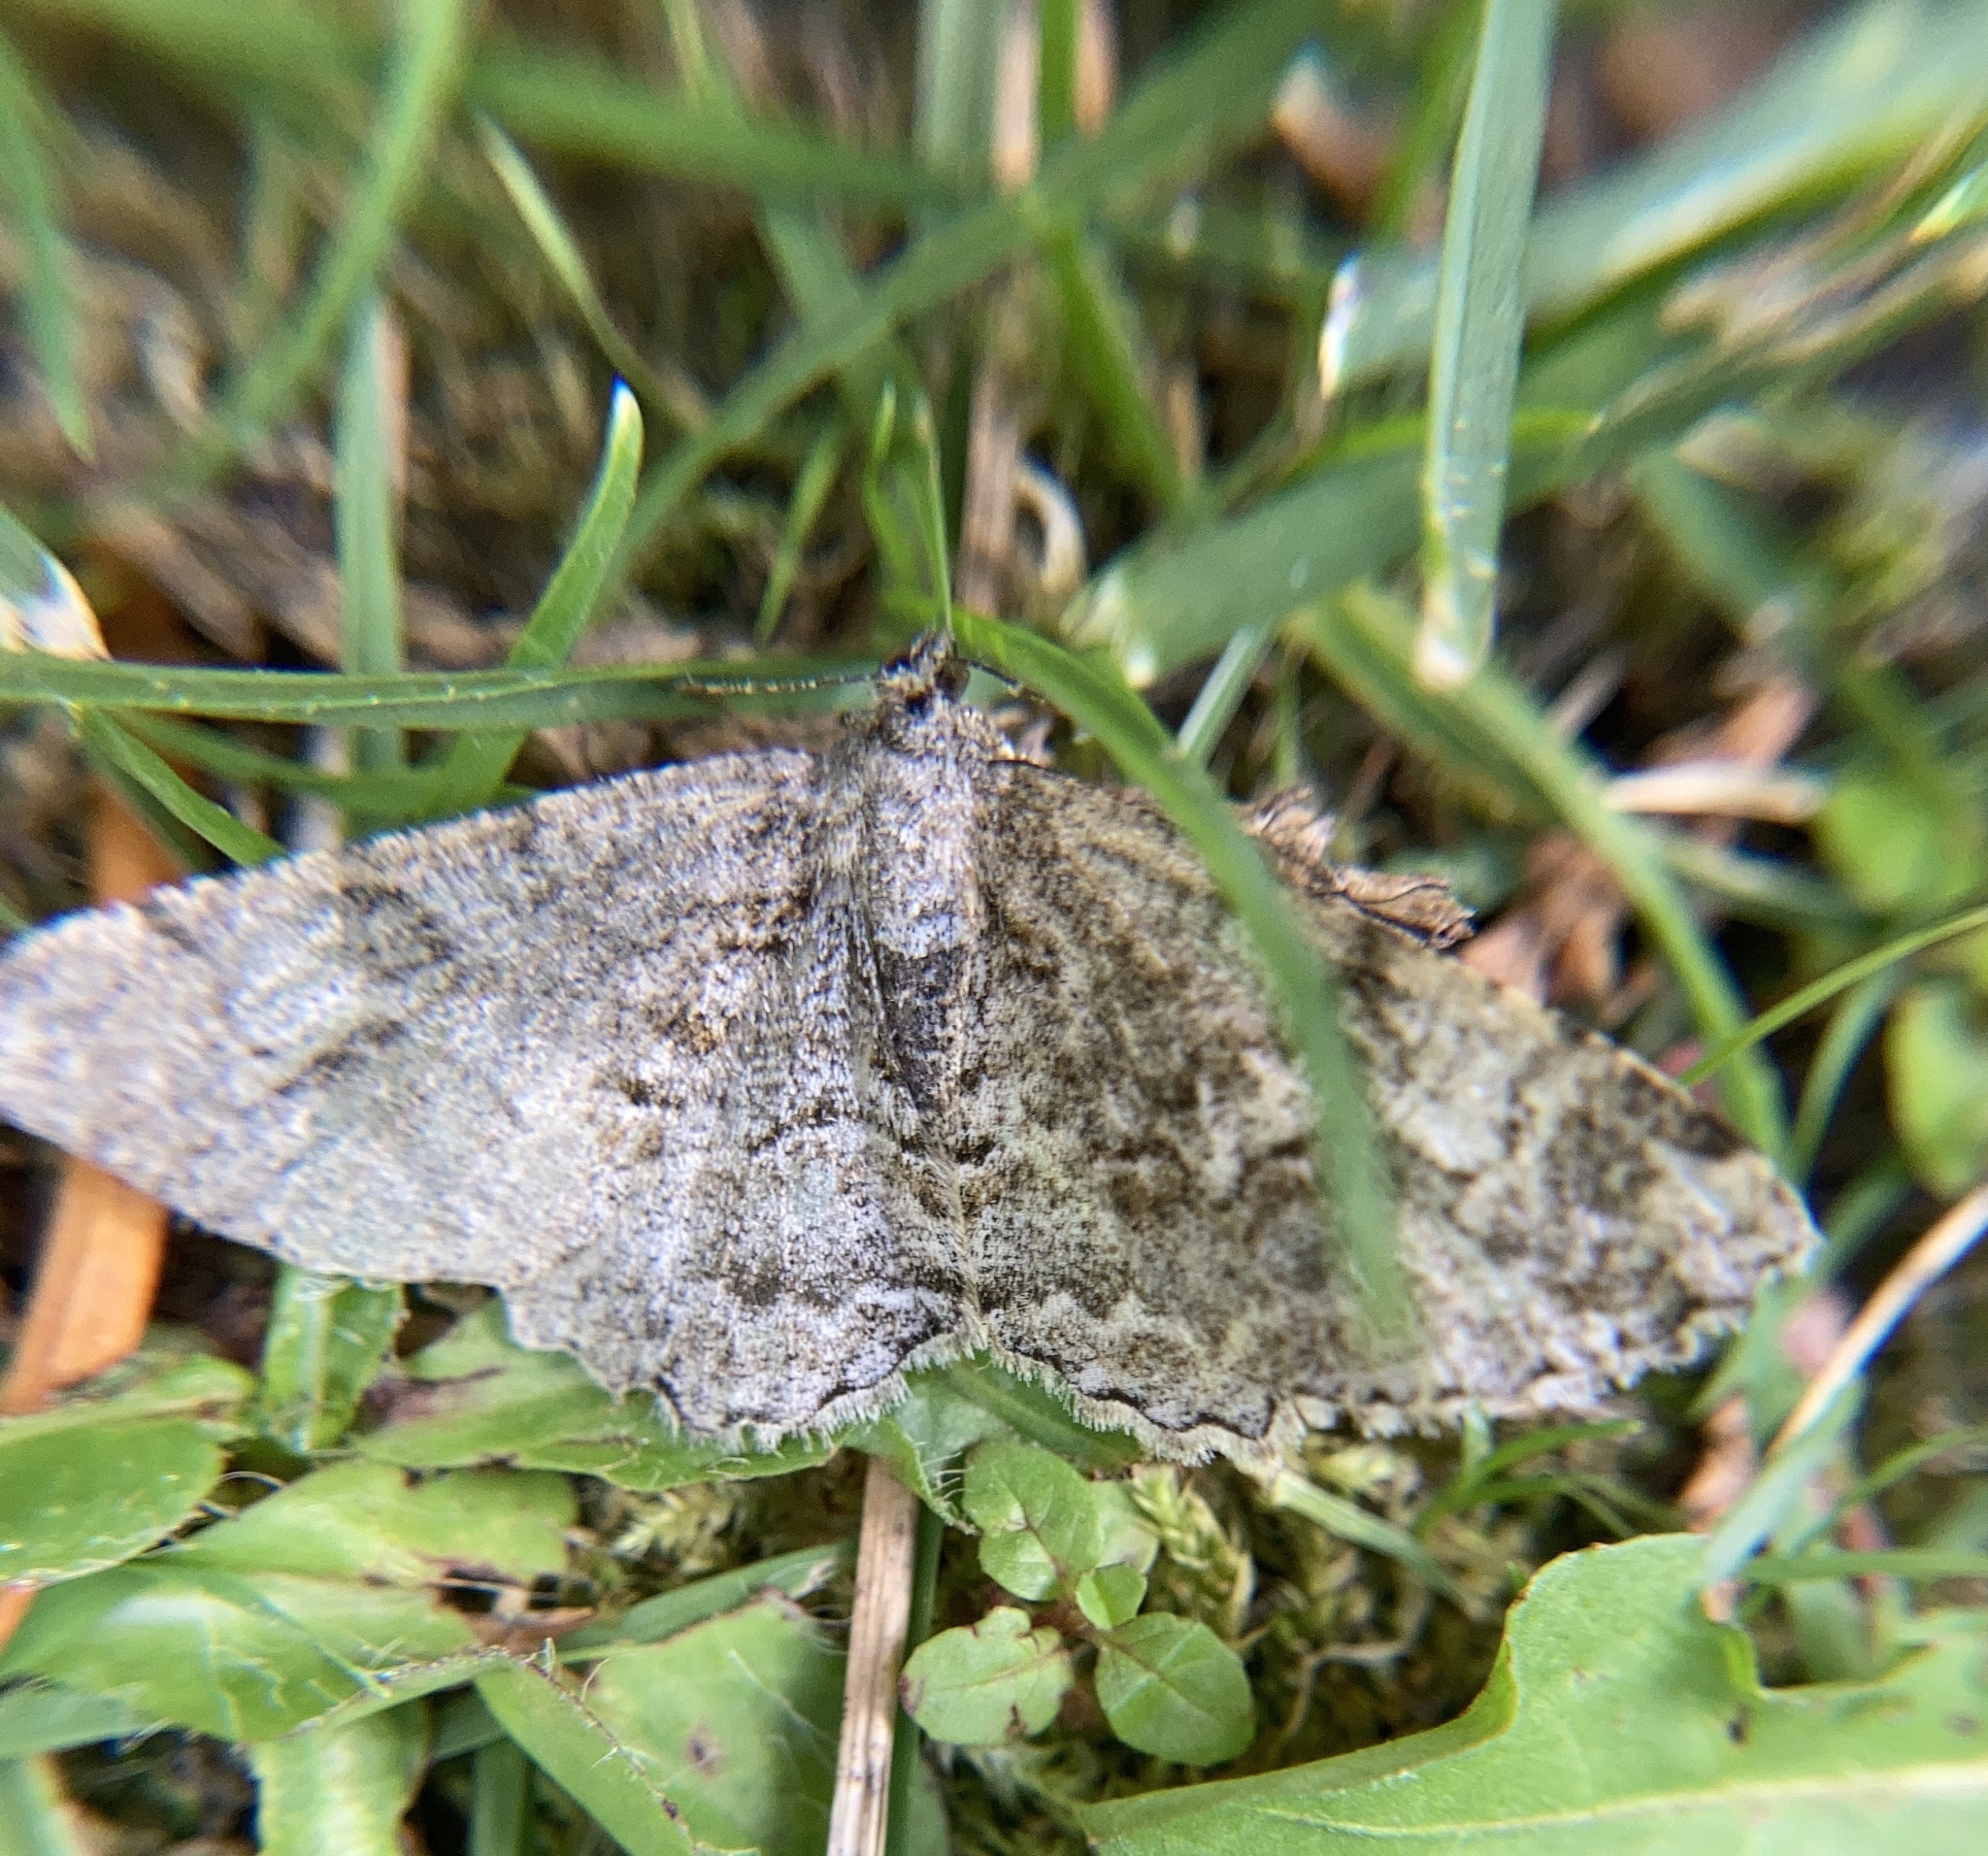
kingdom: Animalia
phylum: Arthropoda
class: Insecta
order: Lepidoptera
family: Geometridae
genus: Alcis
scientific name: Alcis repandata
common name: Mottled beauty
